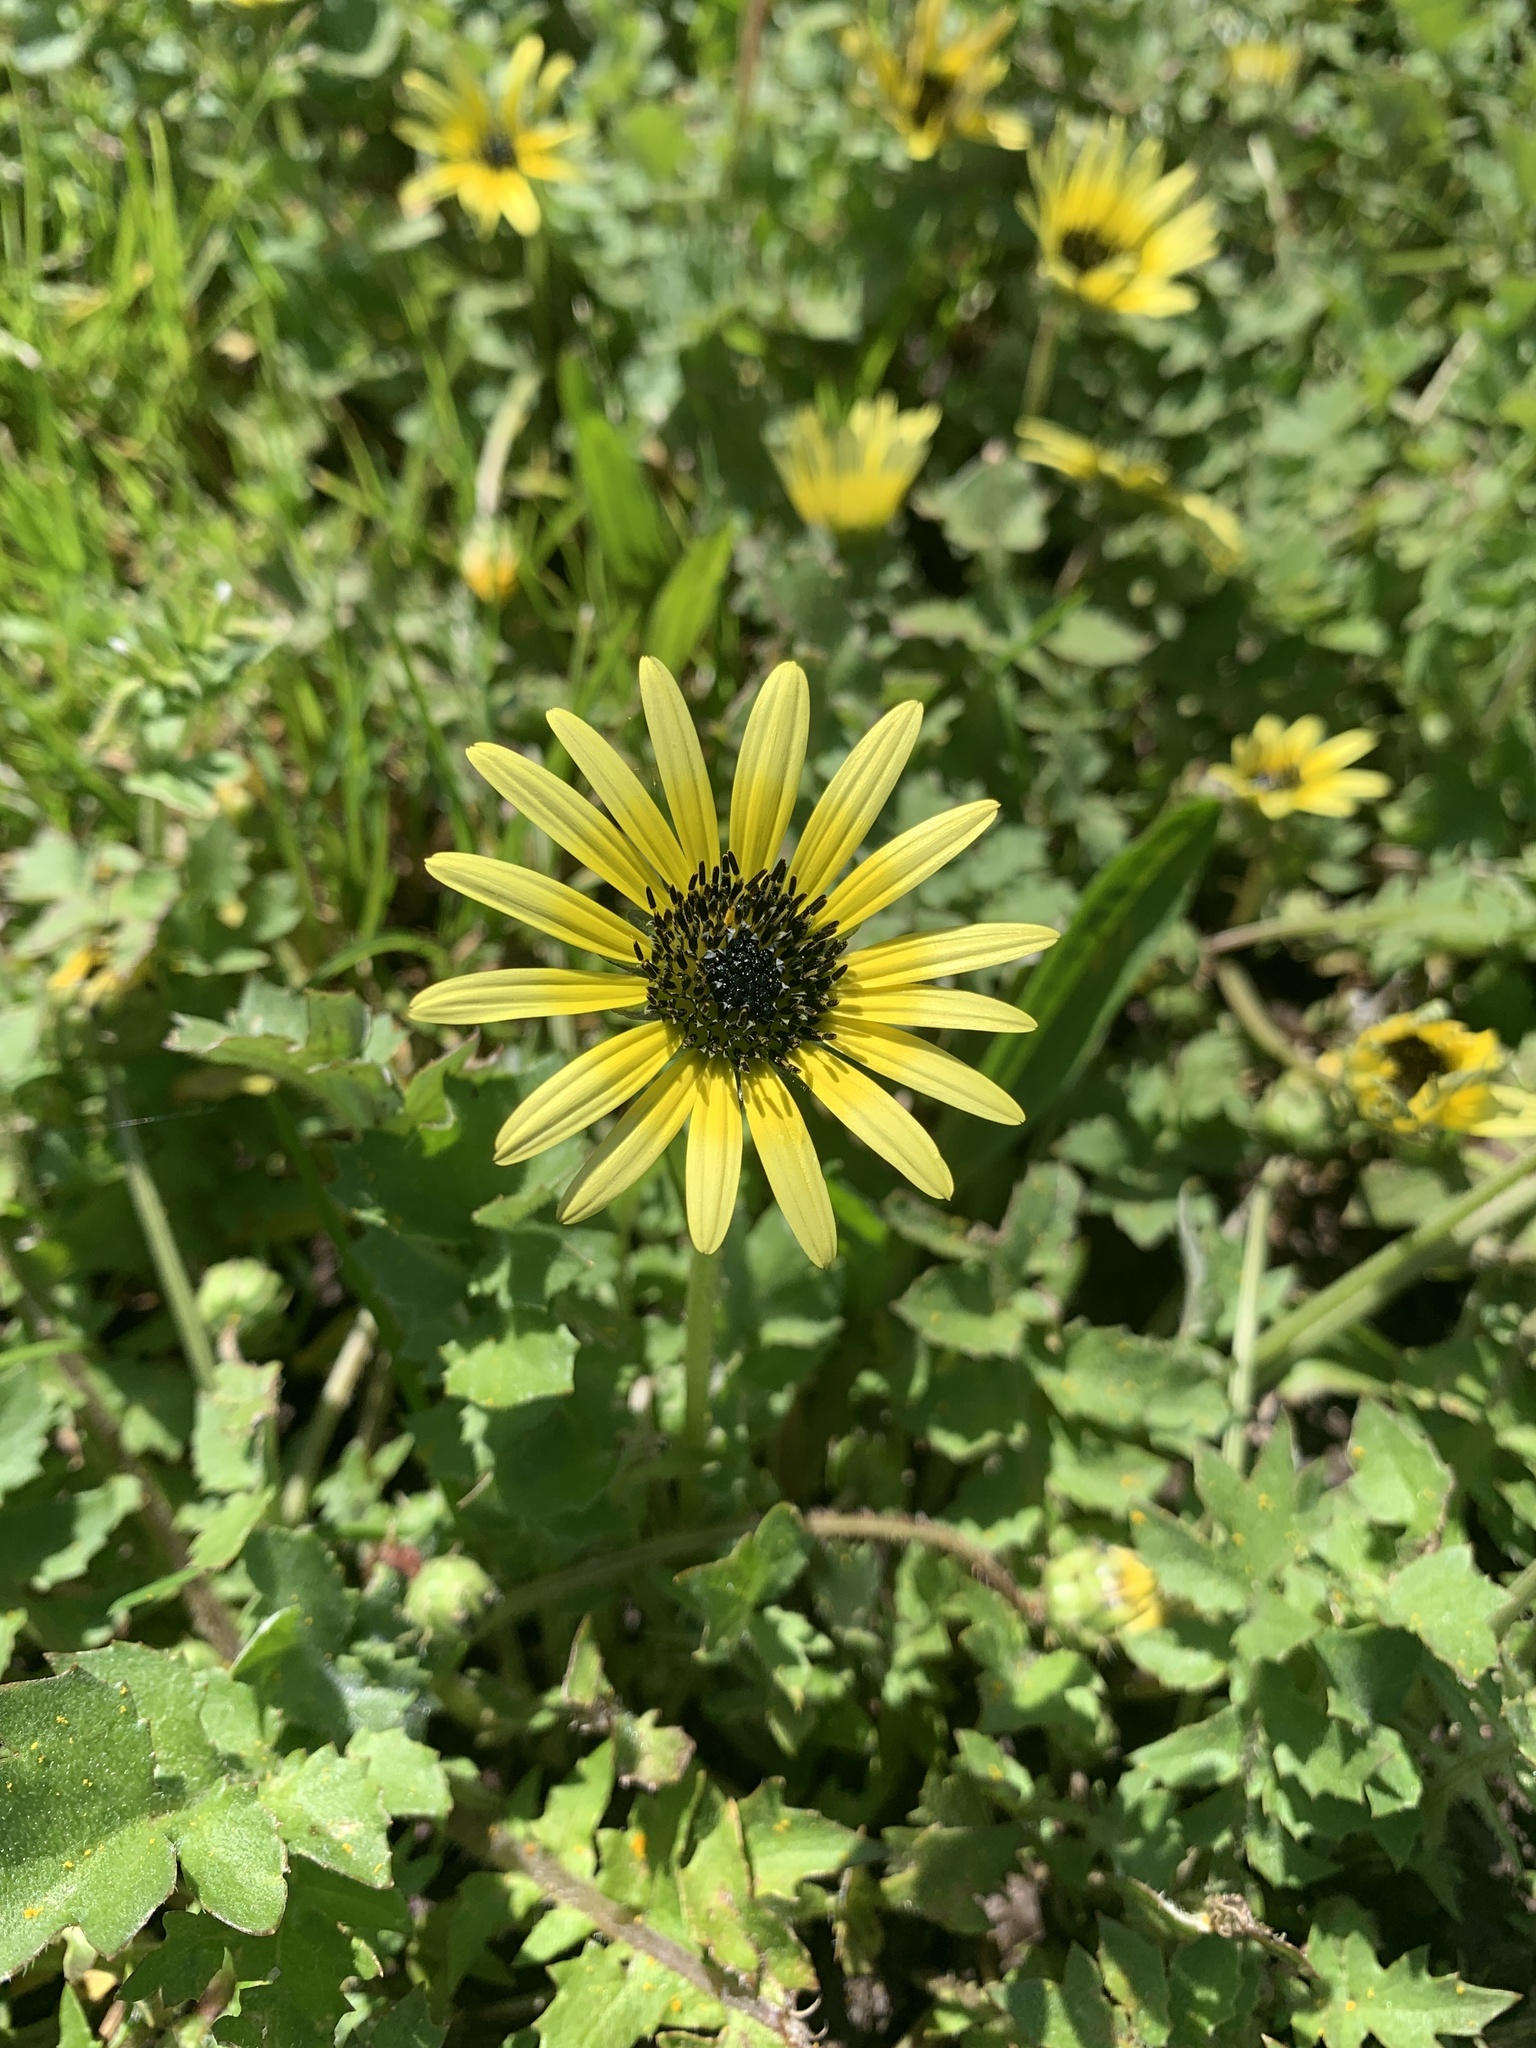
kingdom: Plantae
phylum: Tracheophyta
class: Magnoliopsida
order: Asterales
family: Asteraceae
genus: Arctotheca
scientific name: Arctotheca calendula
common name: Capeweed
